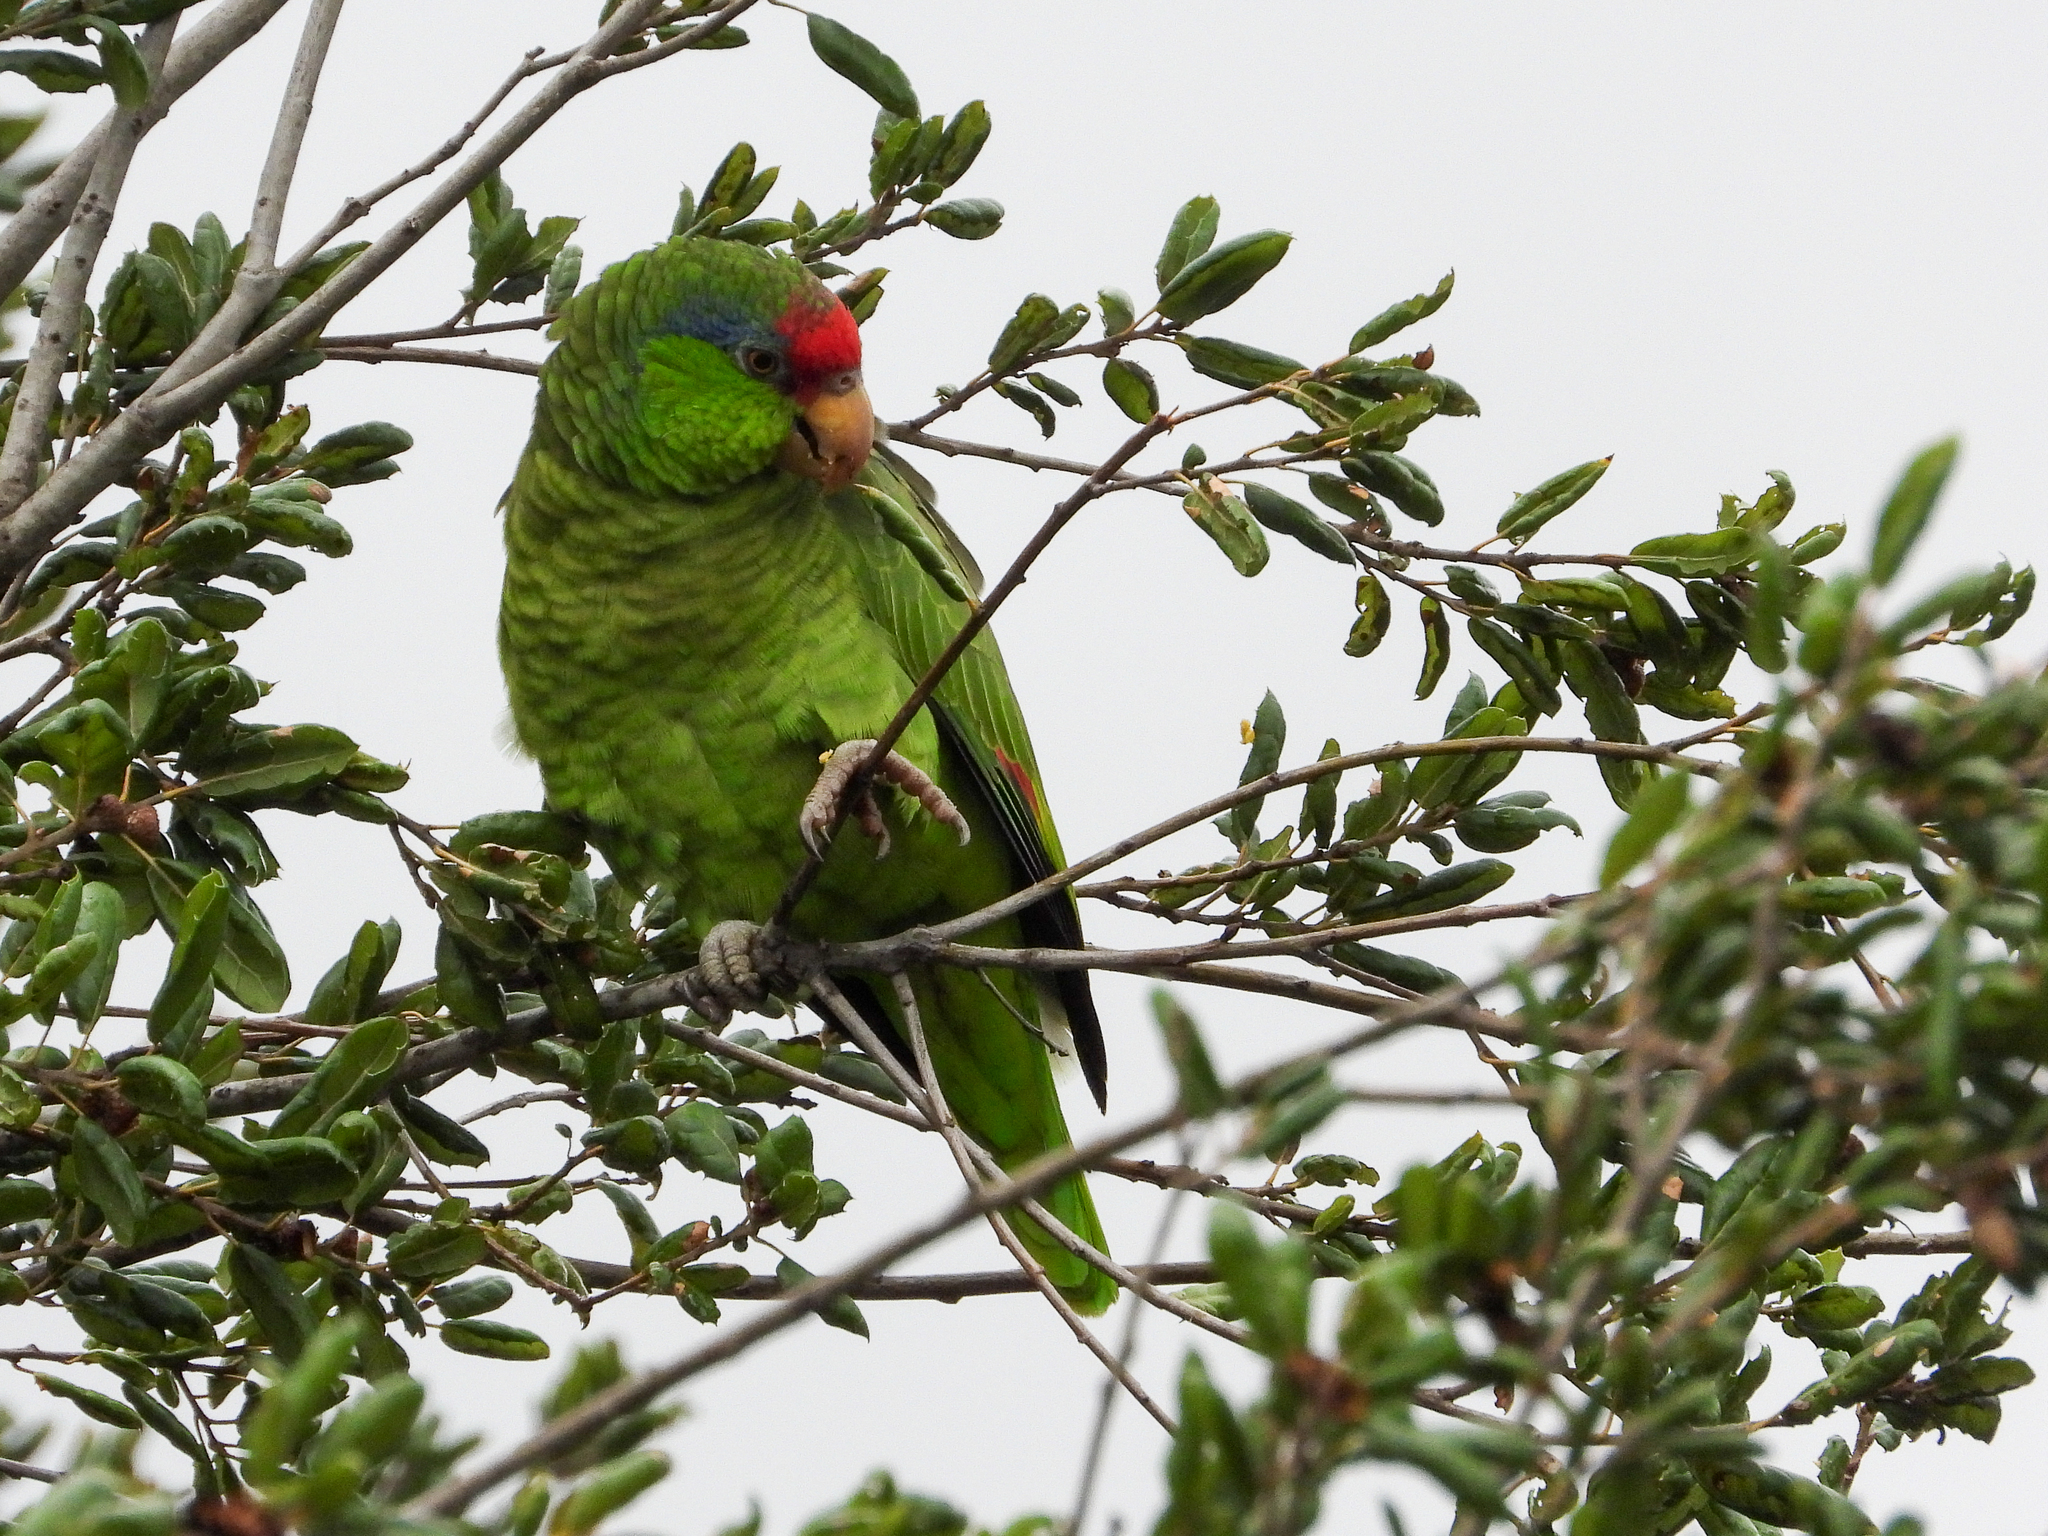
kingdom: Animalia
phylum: Chordata
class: Aves
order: Psittaciformes
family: Psittacidae
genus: Amazona
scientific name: Amazona viridigenalis
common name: Red-crowned amazon
